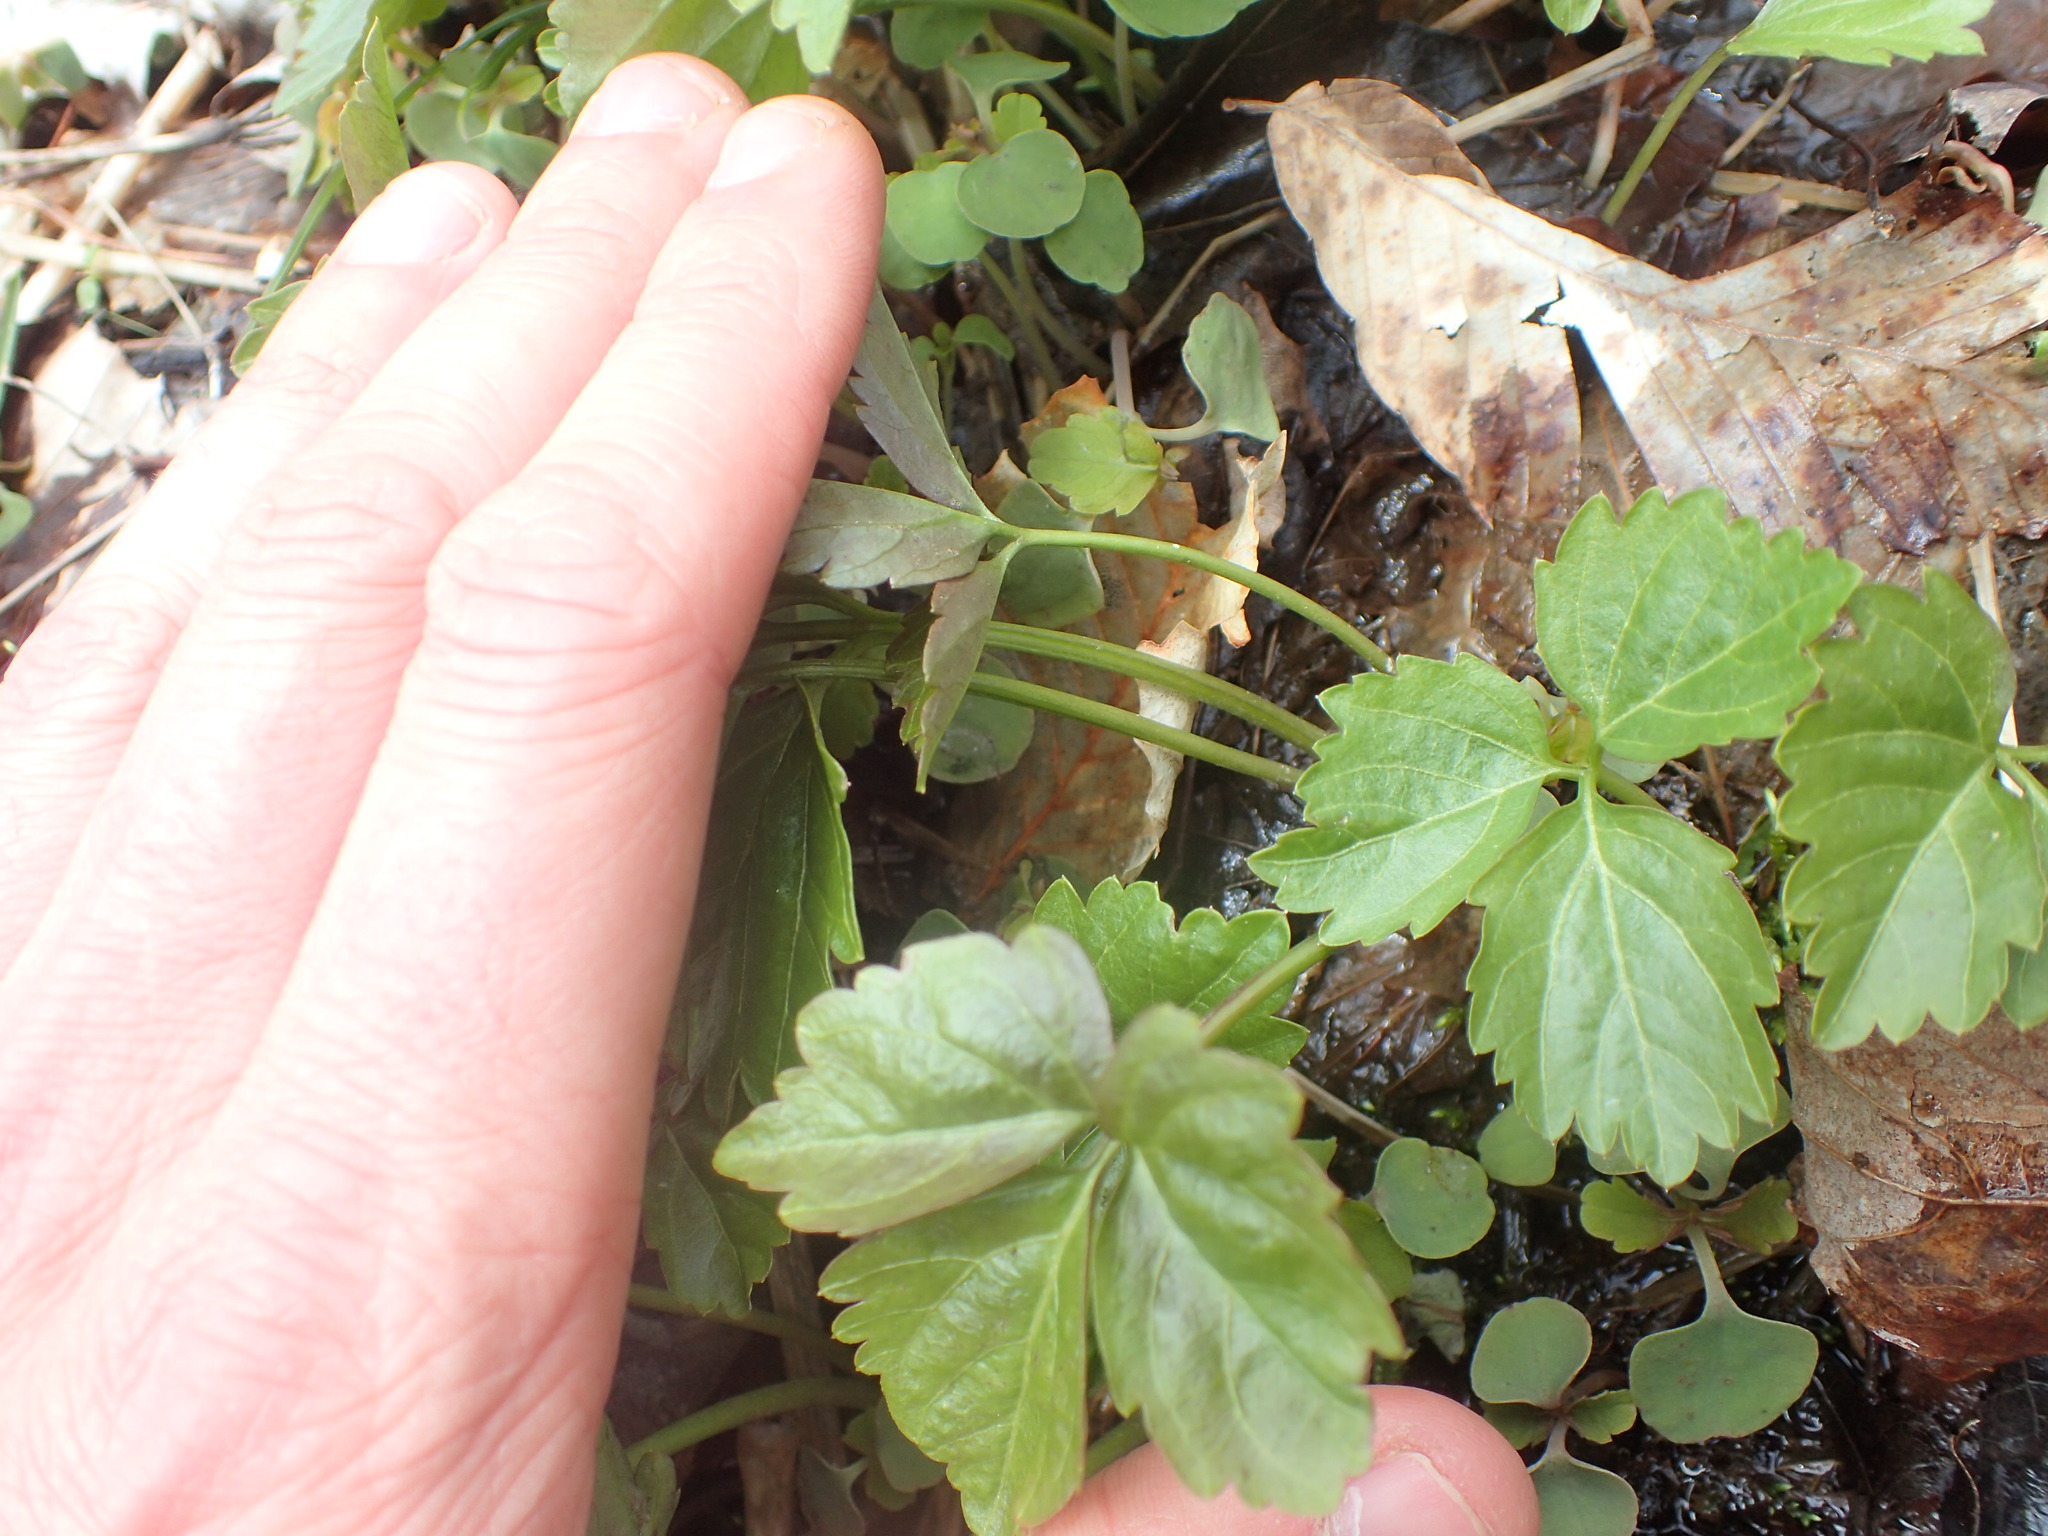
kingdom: Plantae
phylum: Tracheophyta
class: Magnoliopsida
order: Brassicales
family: Brassicaceae
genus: Cardamine
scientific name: Cardamine diphylla
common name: Broad-leaved toothwort
